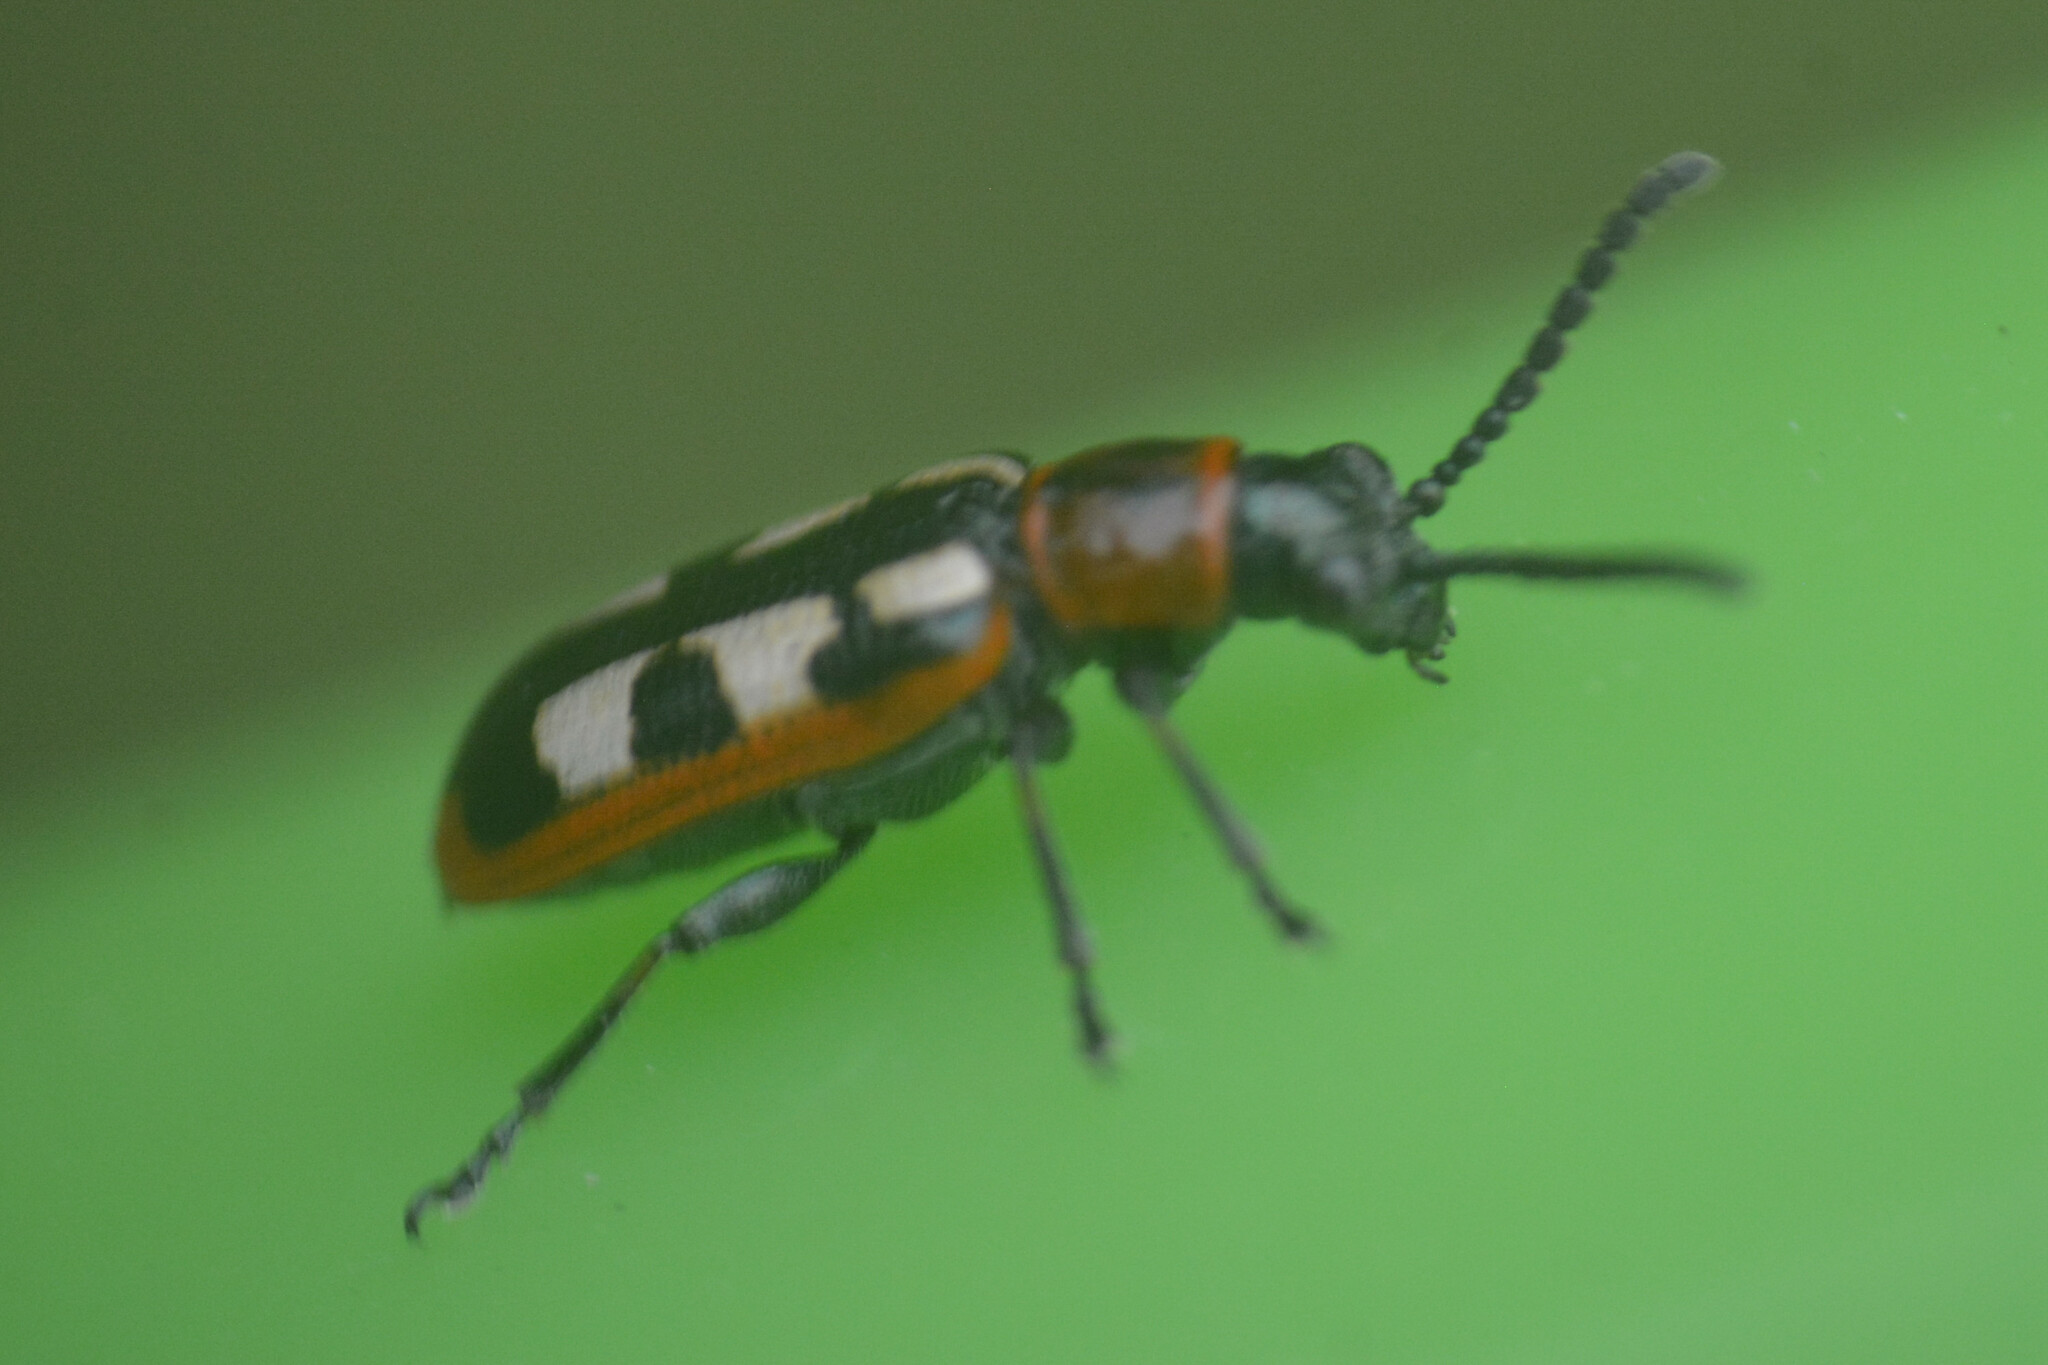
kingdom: Animalia
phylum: Arthropoda
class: Insecta
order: Coleoptera
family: Chrysomelidae
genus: Crioceris
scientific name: Crioceris asparagi
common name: Asparagus beetle
